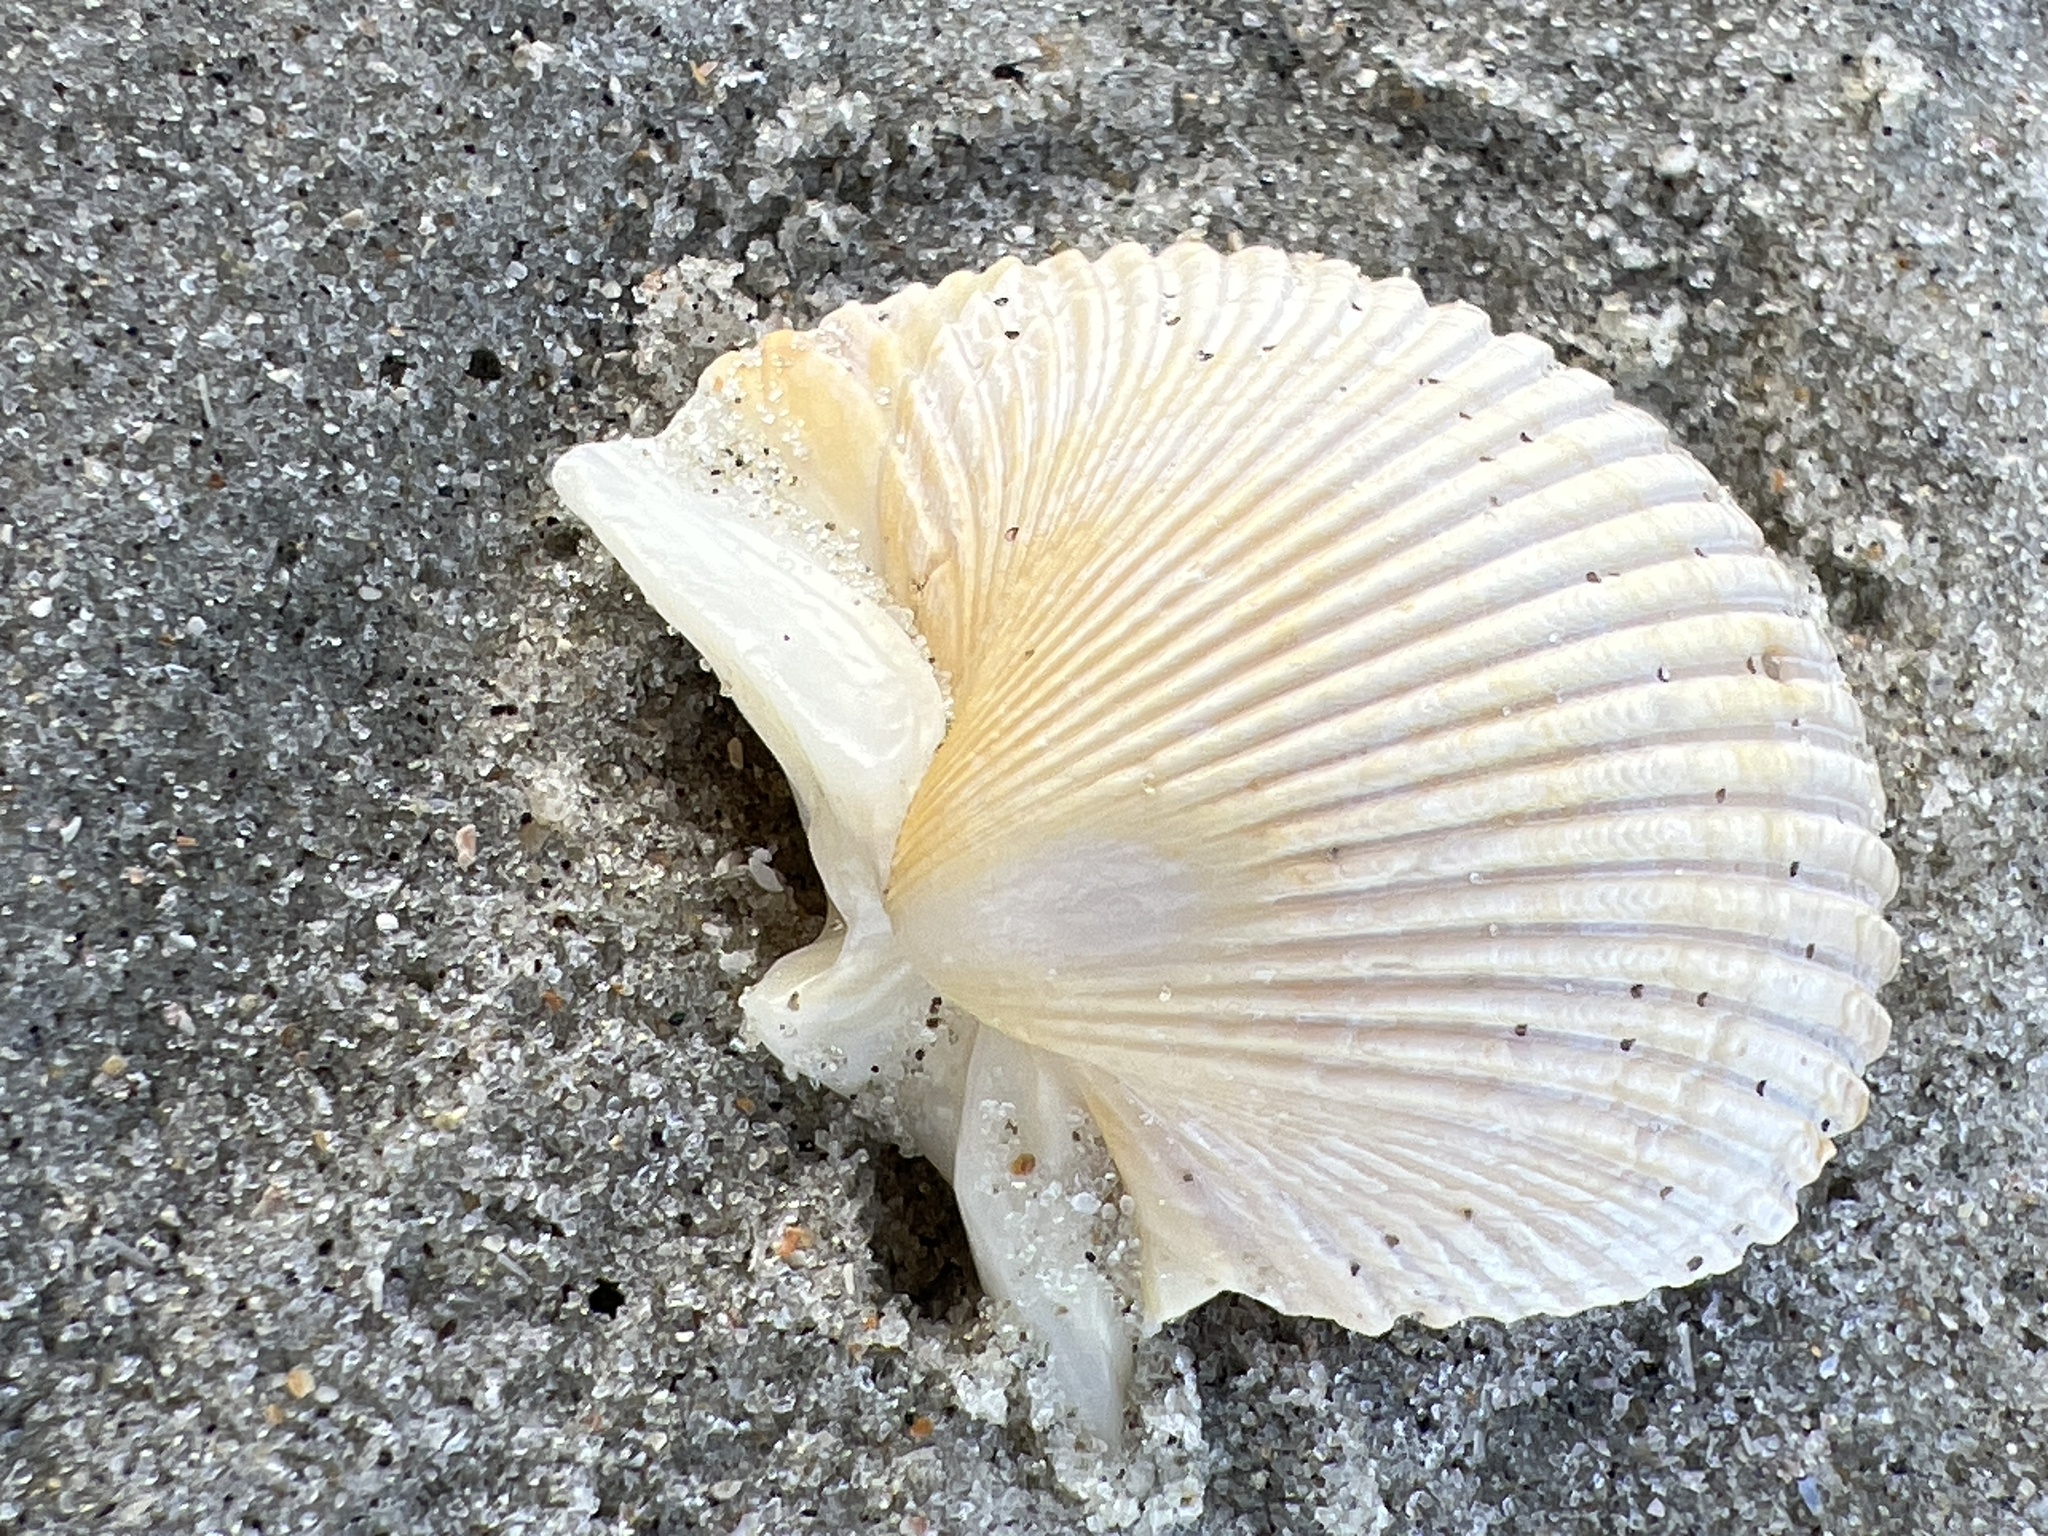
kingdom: Animalia
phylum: Mollusca
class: Bivalvia
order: Cardiida
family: Cardiidae
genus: Dinocardium
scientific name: Dinocardium robustum
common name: Atlantic giant cockle
